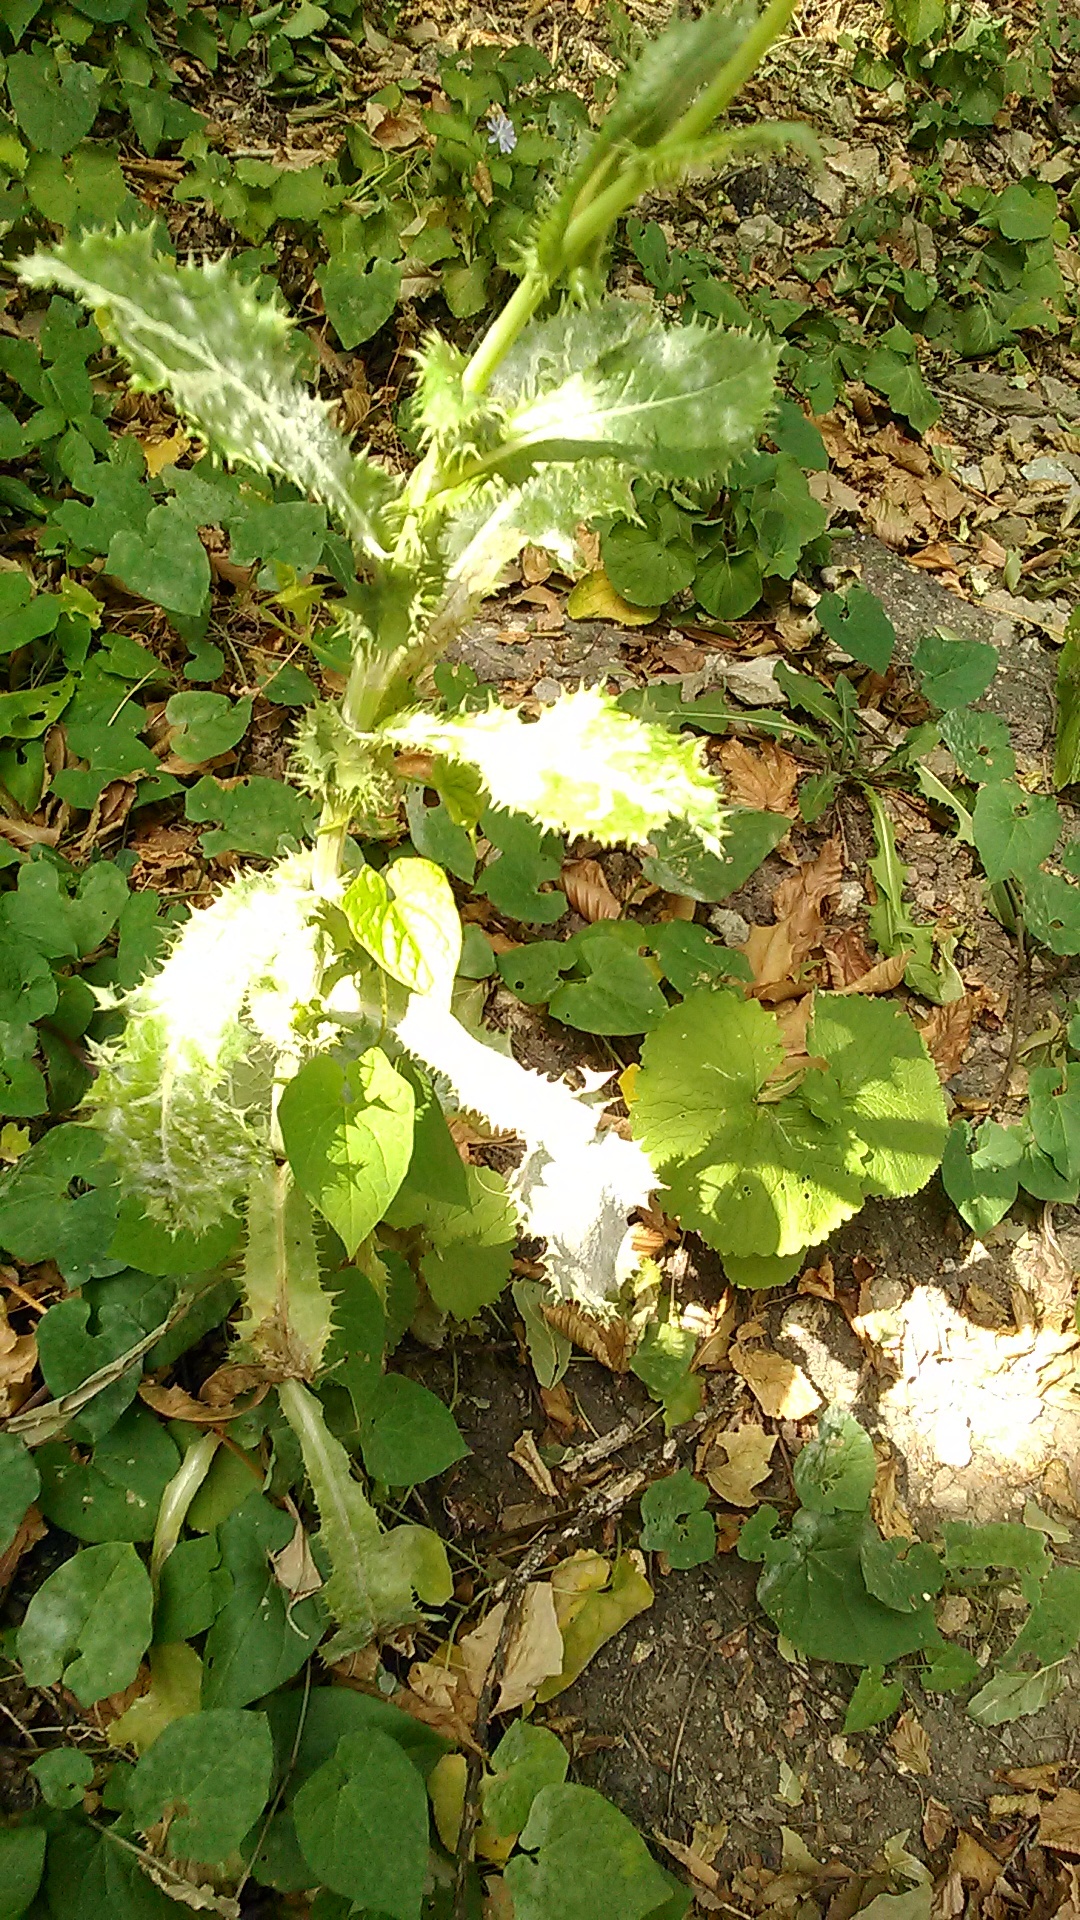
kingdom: Plantae
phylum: Tracheophyta
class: Magnoliopsida
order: Asterales
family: Asteraceae
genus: Sonchus
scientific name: Sonchus asper
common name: Prickly sow-thistle
